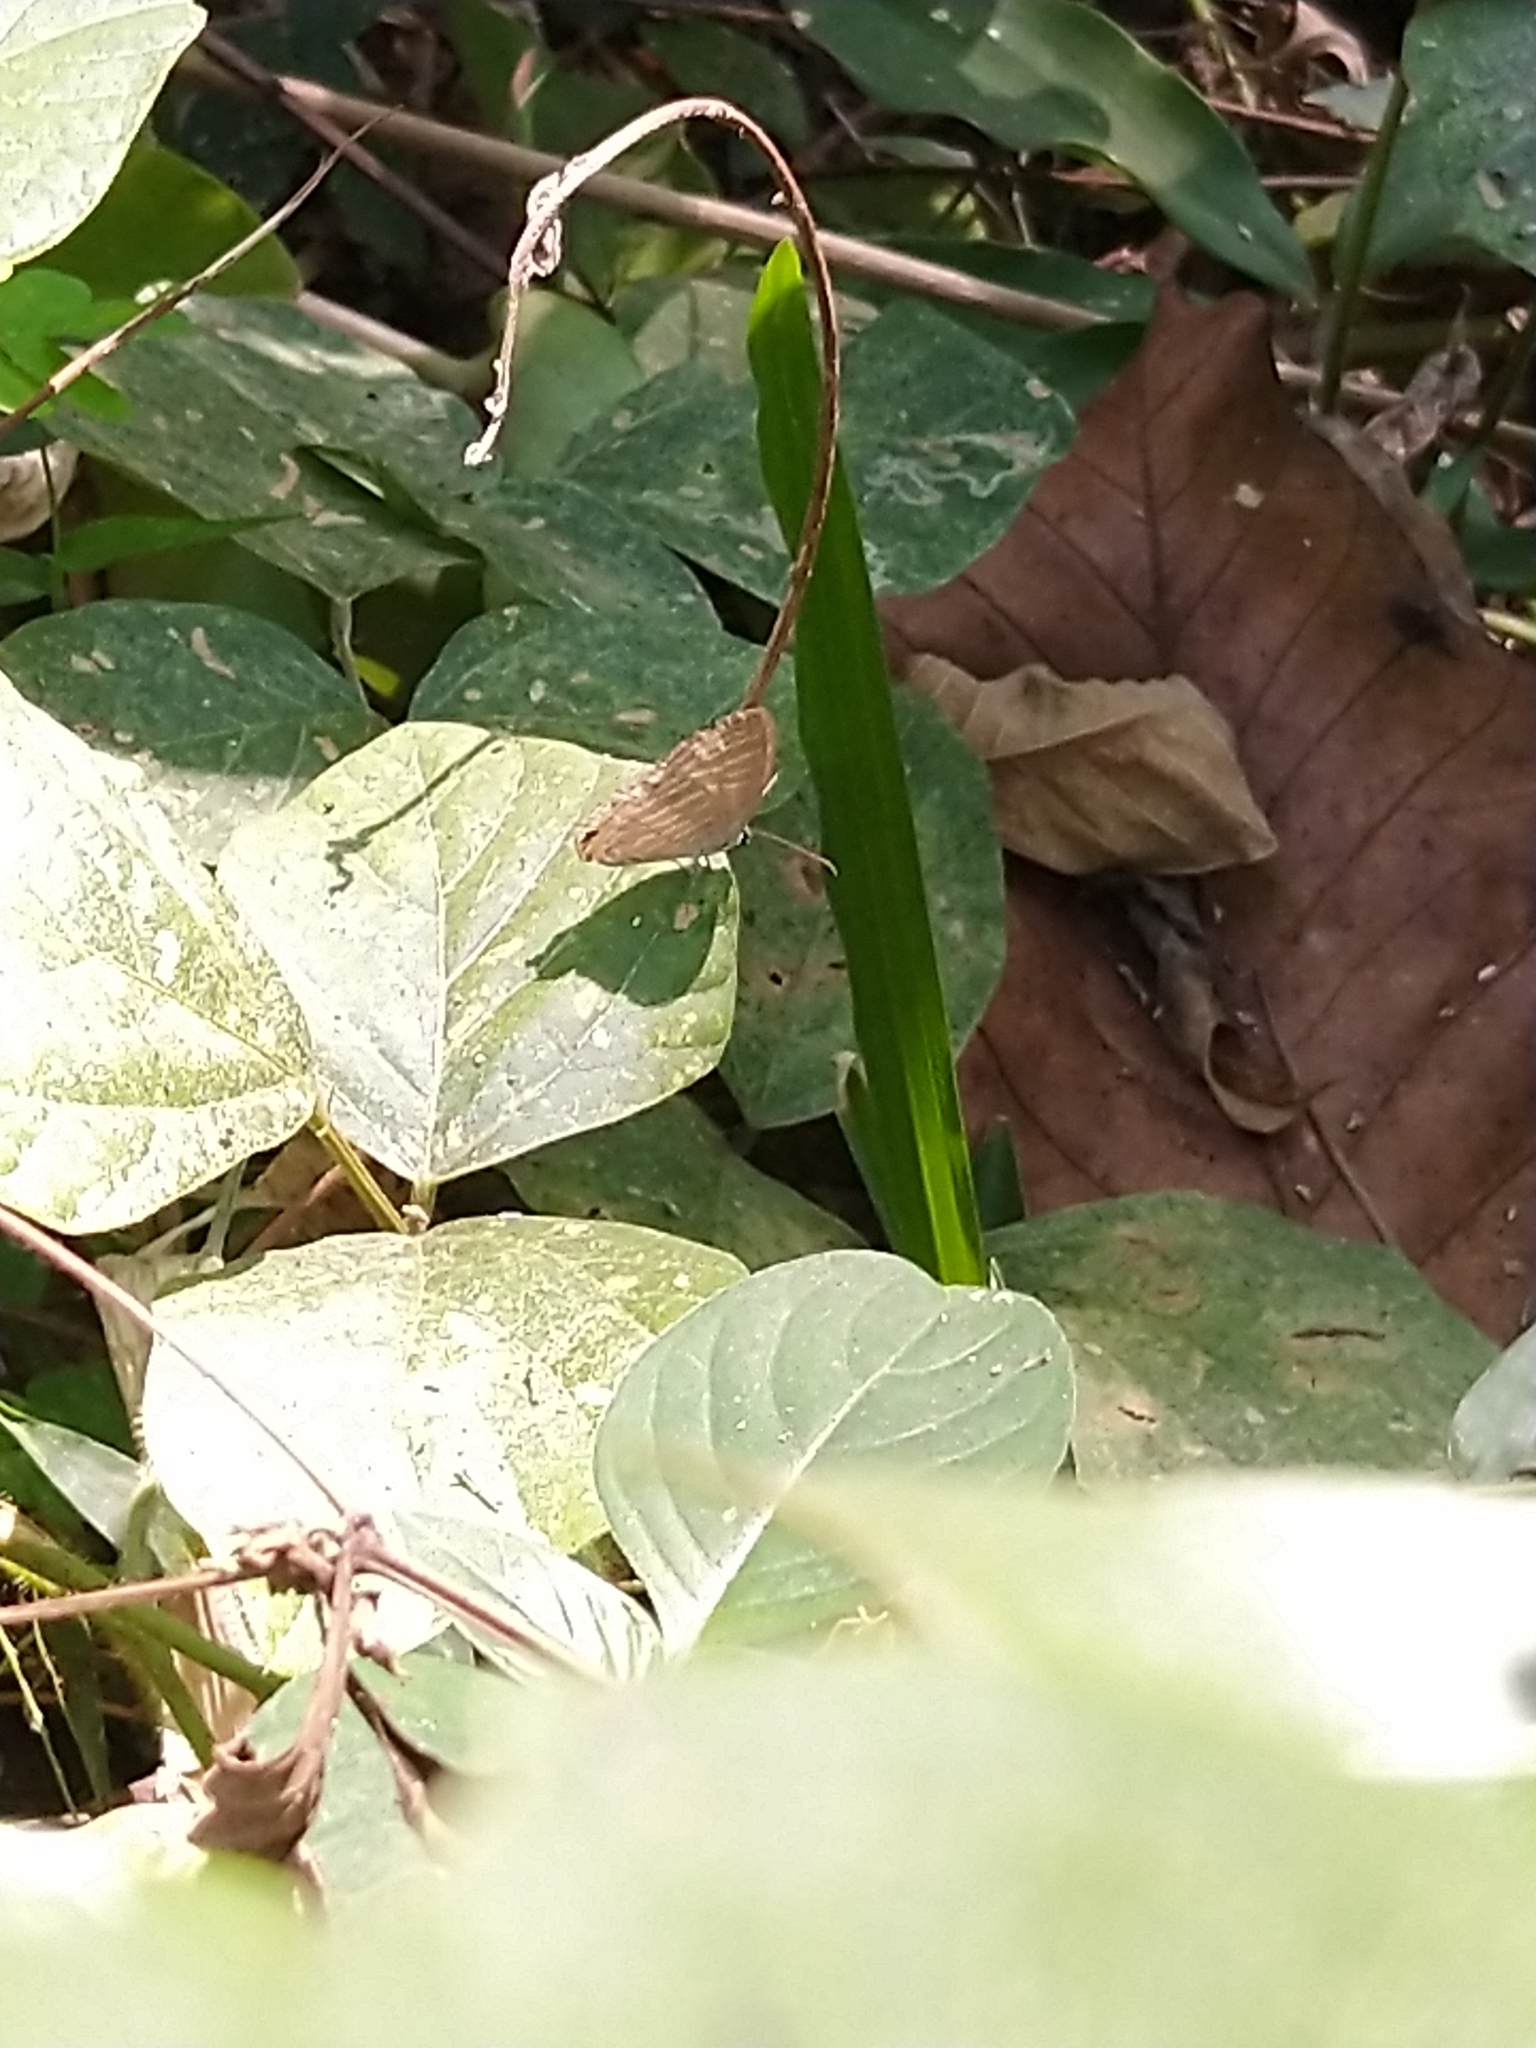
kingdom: Animalia
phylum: Arthropoda
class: Insecta
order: Lepidoptera
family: Lycaenidae
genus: Jamides
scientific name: Jamides celeno
